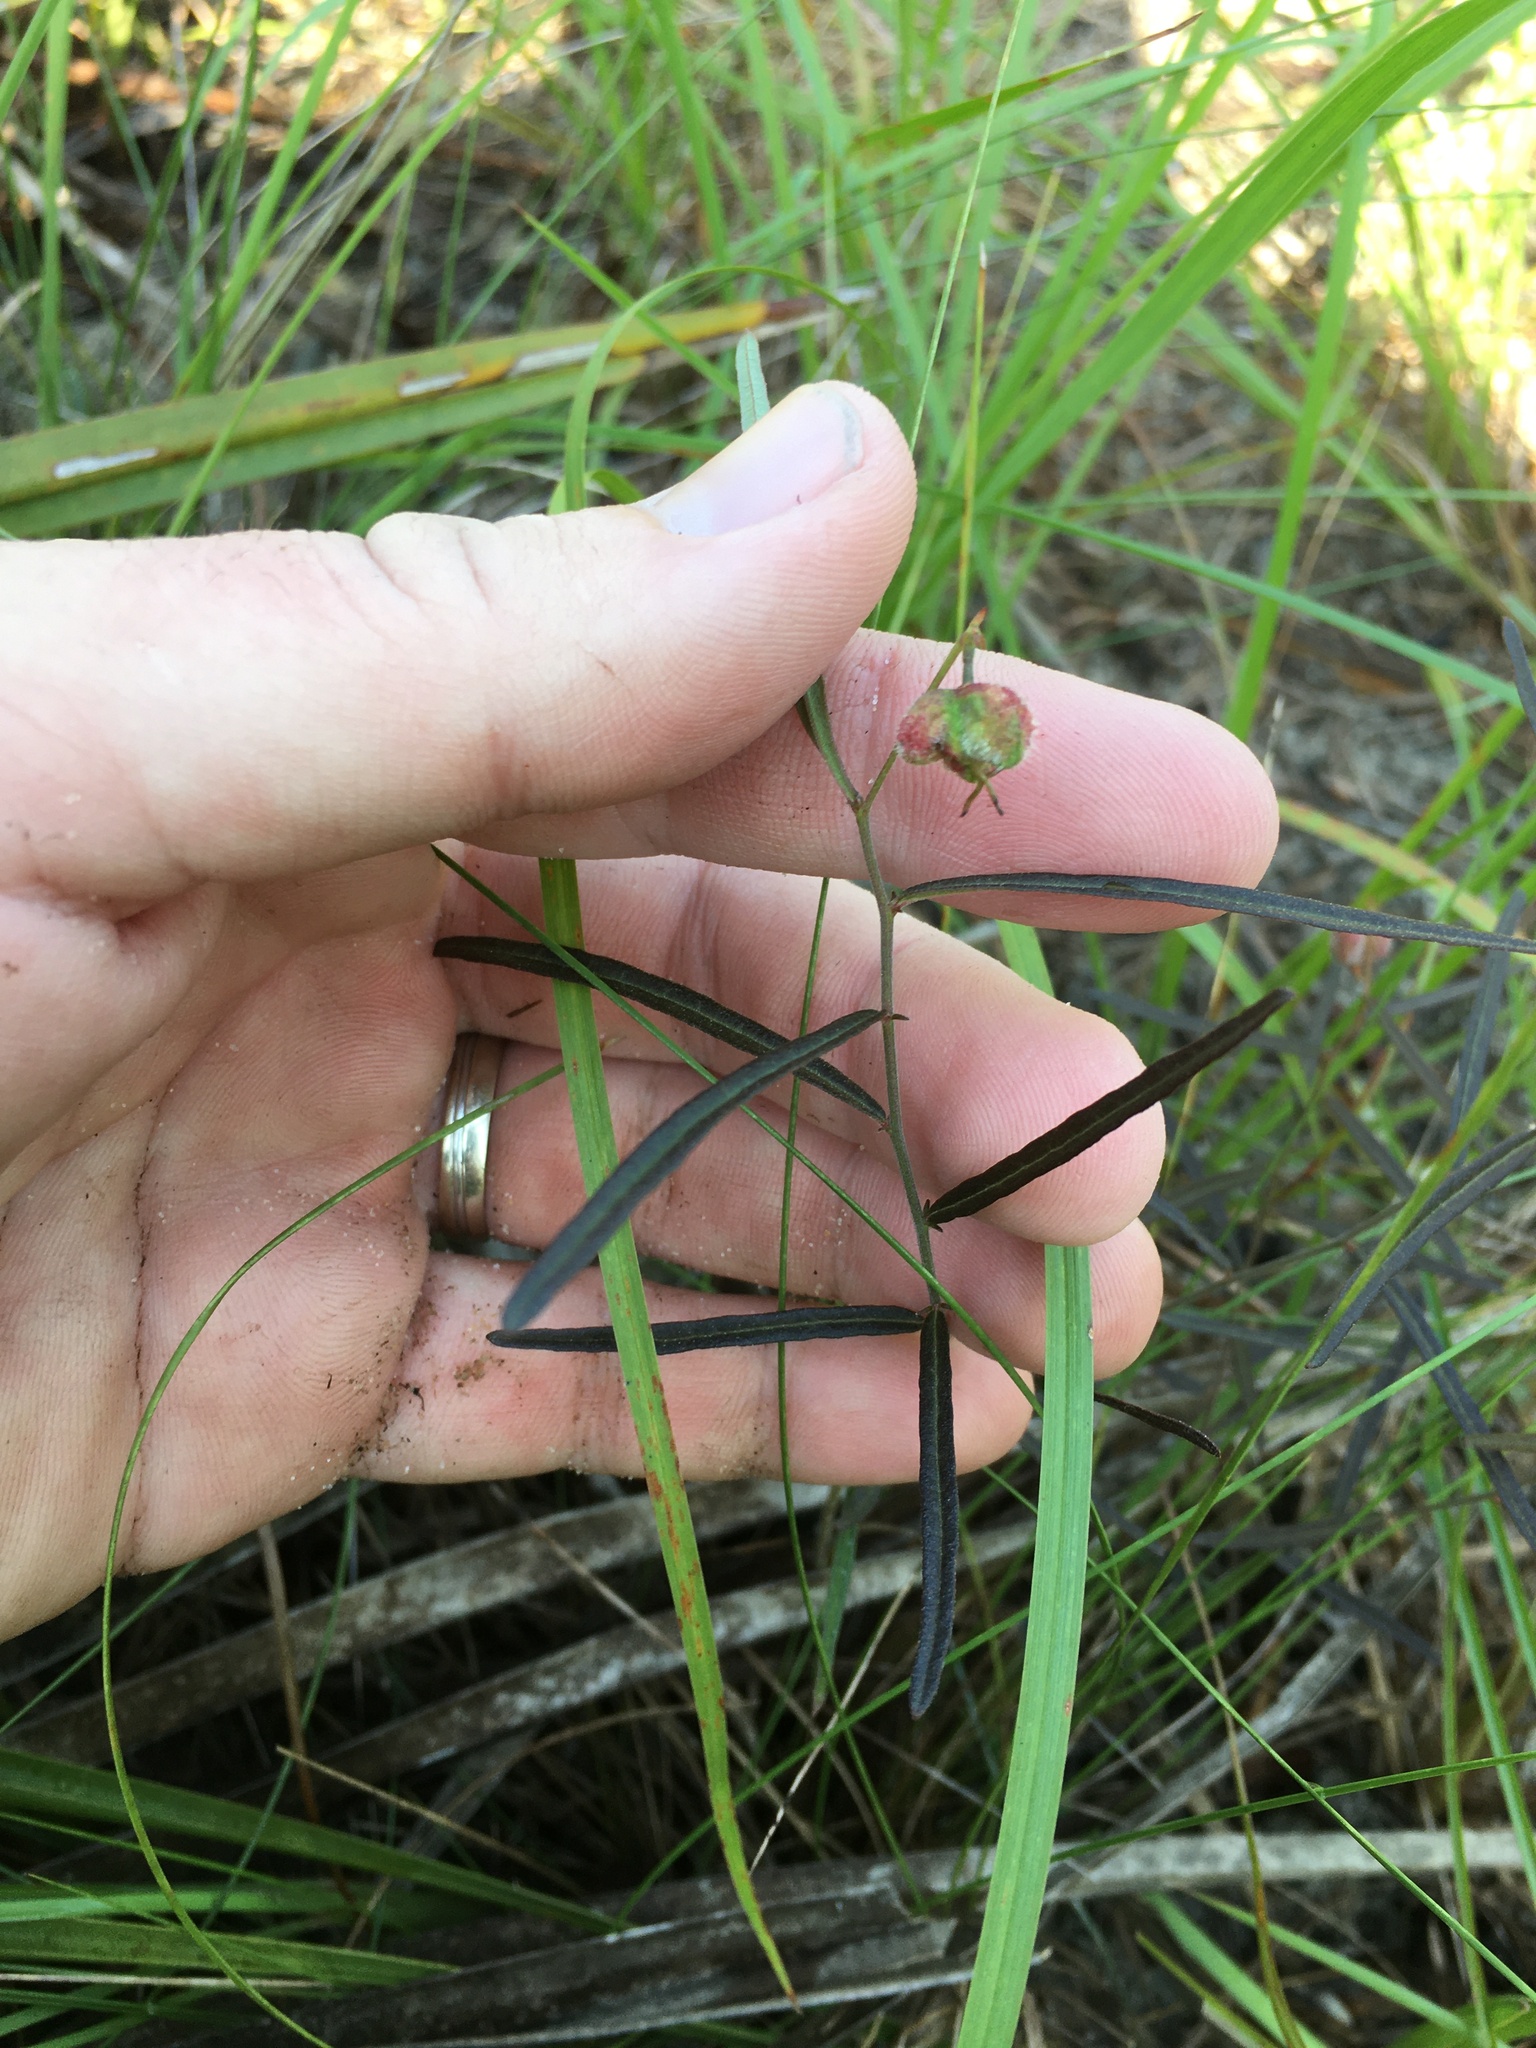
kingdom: Plantae
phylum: Tracheophyta
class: Magnoliopsida
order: Malpighiales
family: Euphorbiaceae
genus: Tragia
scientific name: Tragia urens
